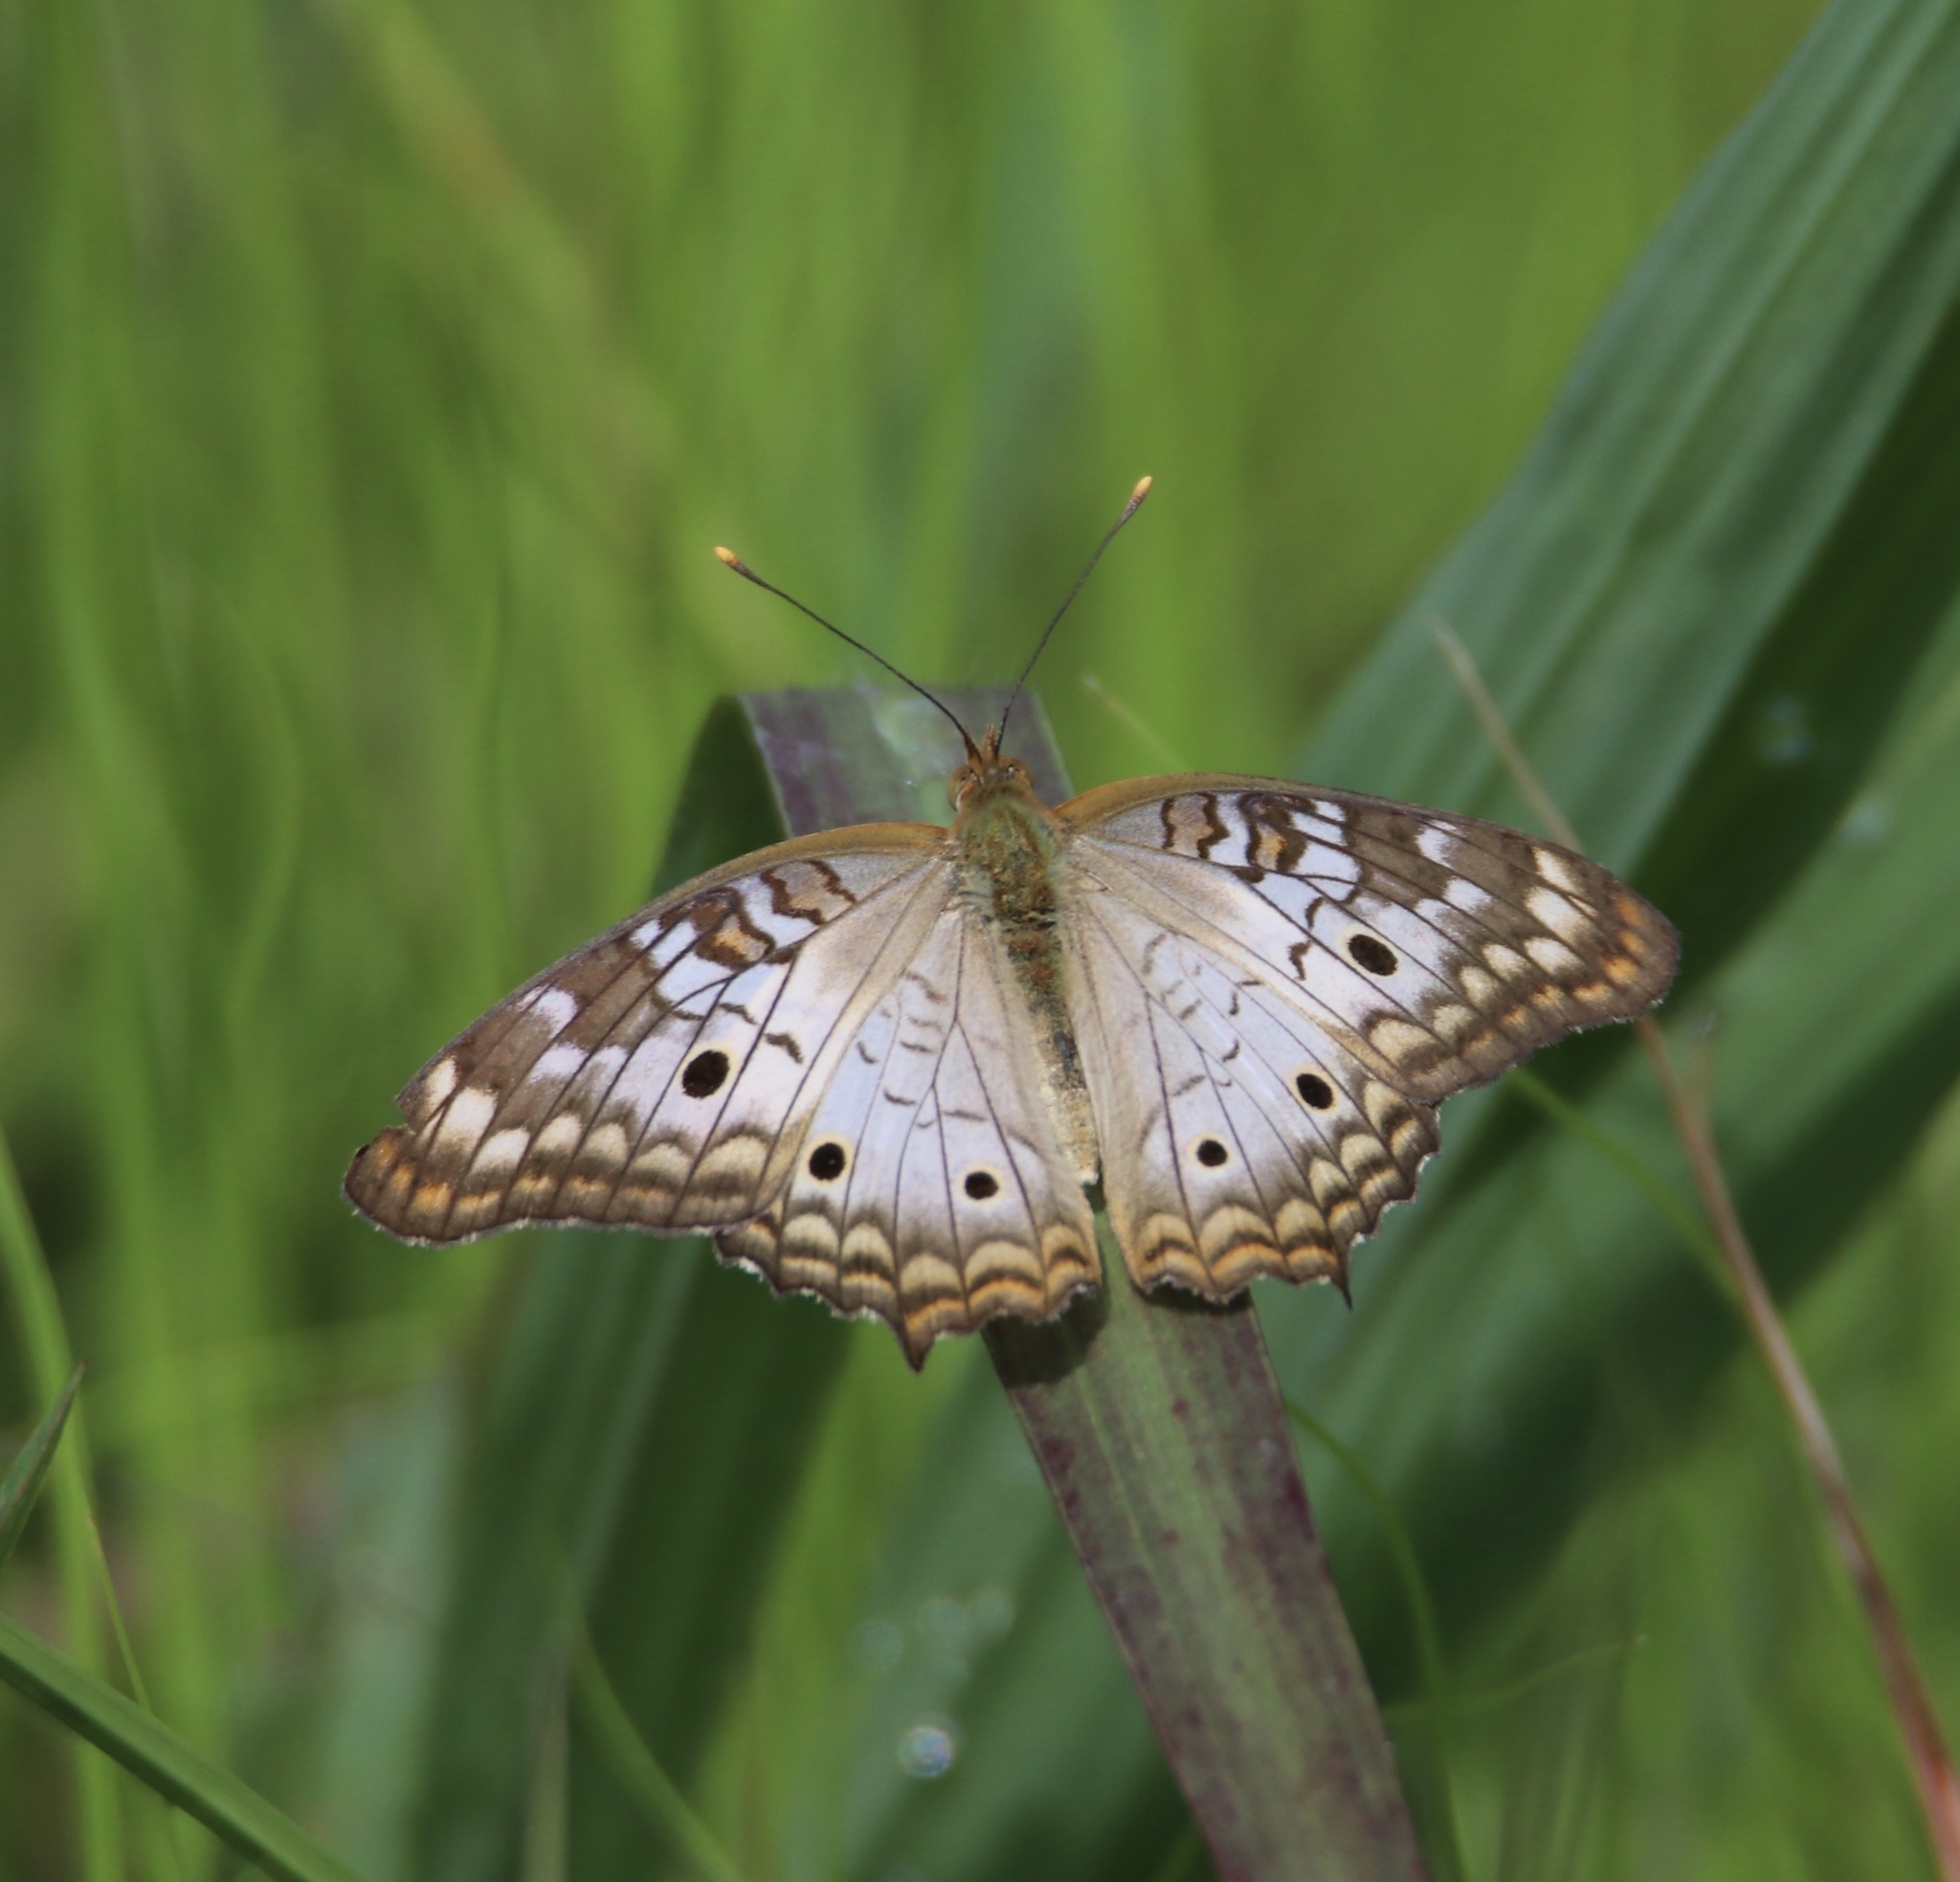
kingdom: Animalia
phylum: Arthropoda
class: Insecta
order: Lepidoptera
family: Nymphalidae
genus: Anartia
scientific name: Anartia jatrophae
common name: White peacock
